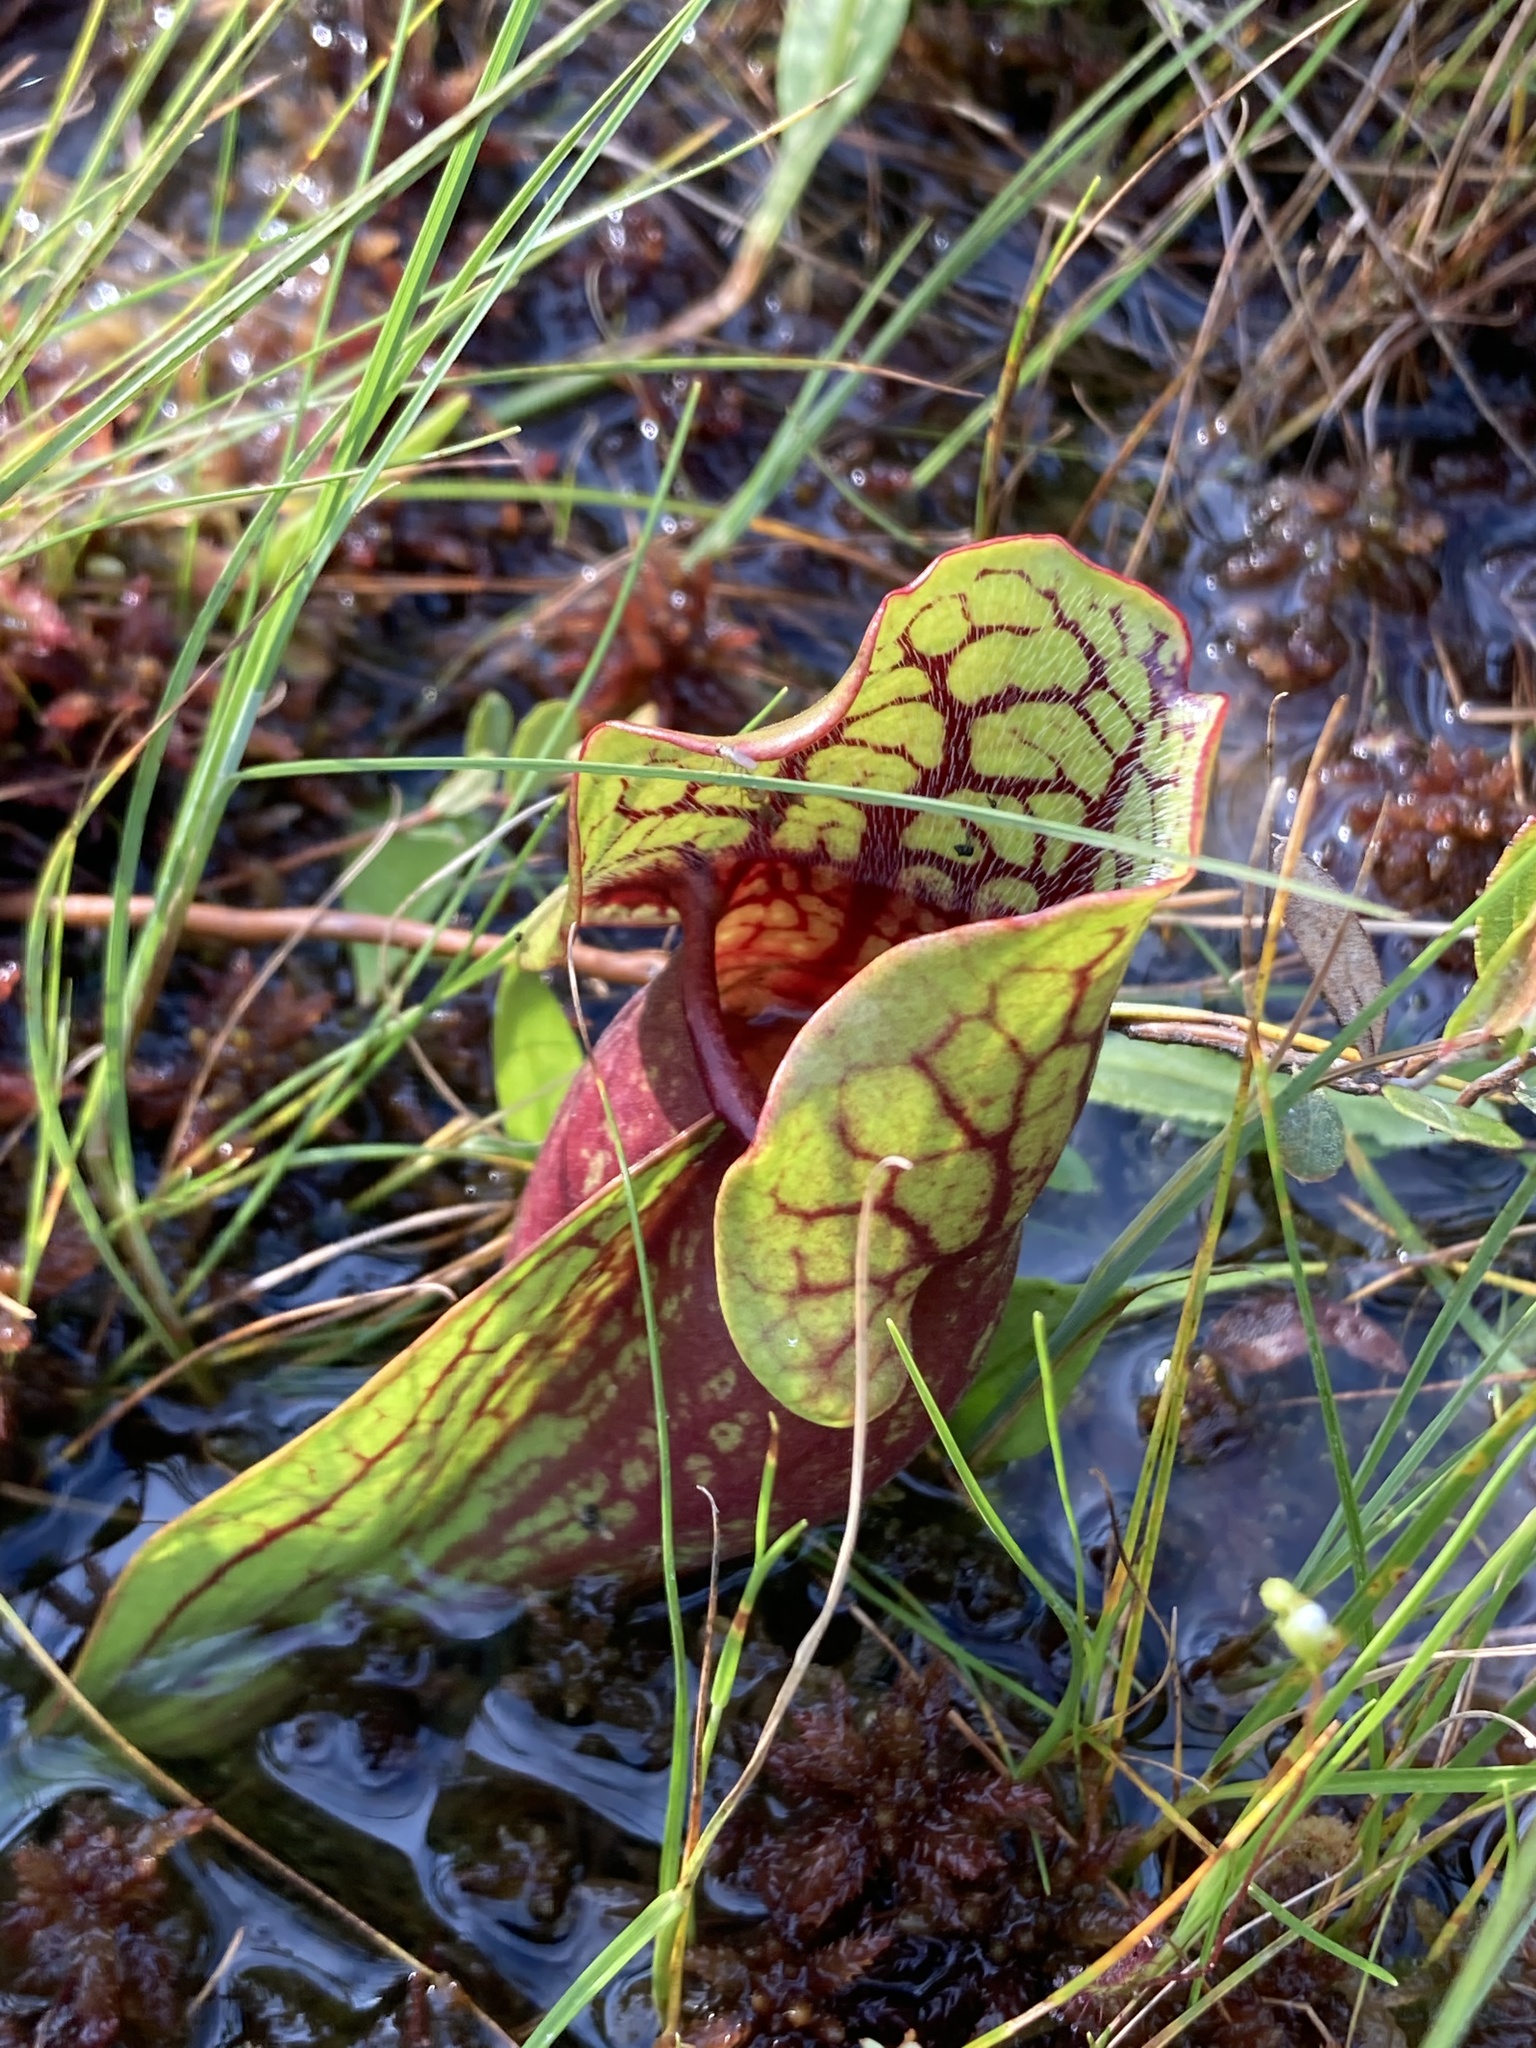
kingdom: Plantae
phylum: Tracheophyta
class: Magnoliopsida
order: Ericales
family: Sarraceniaceae
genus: Sarracenia
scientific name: Sarracenia purpurea
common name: Pitcherplant
